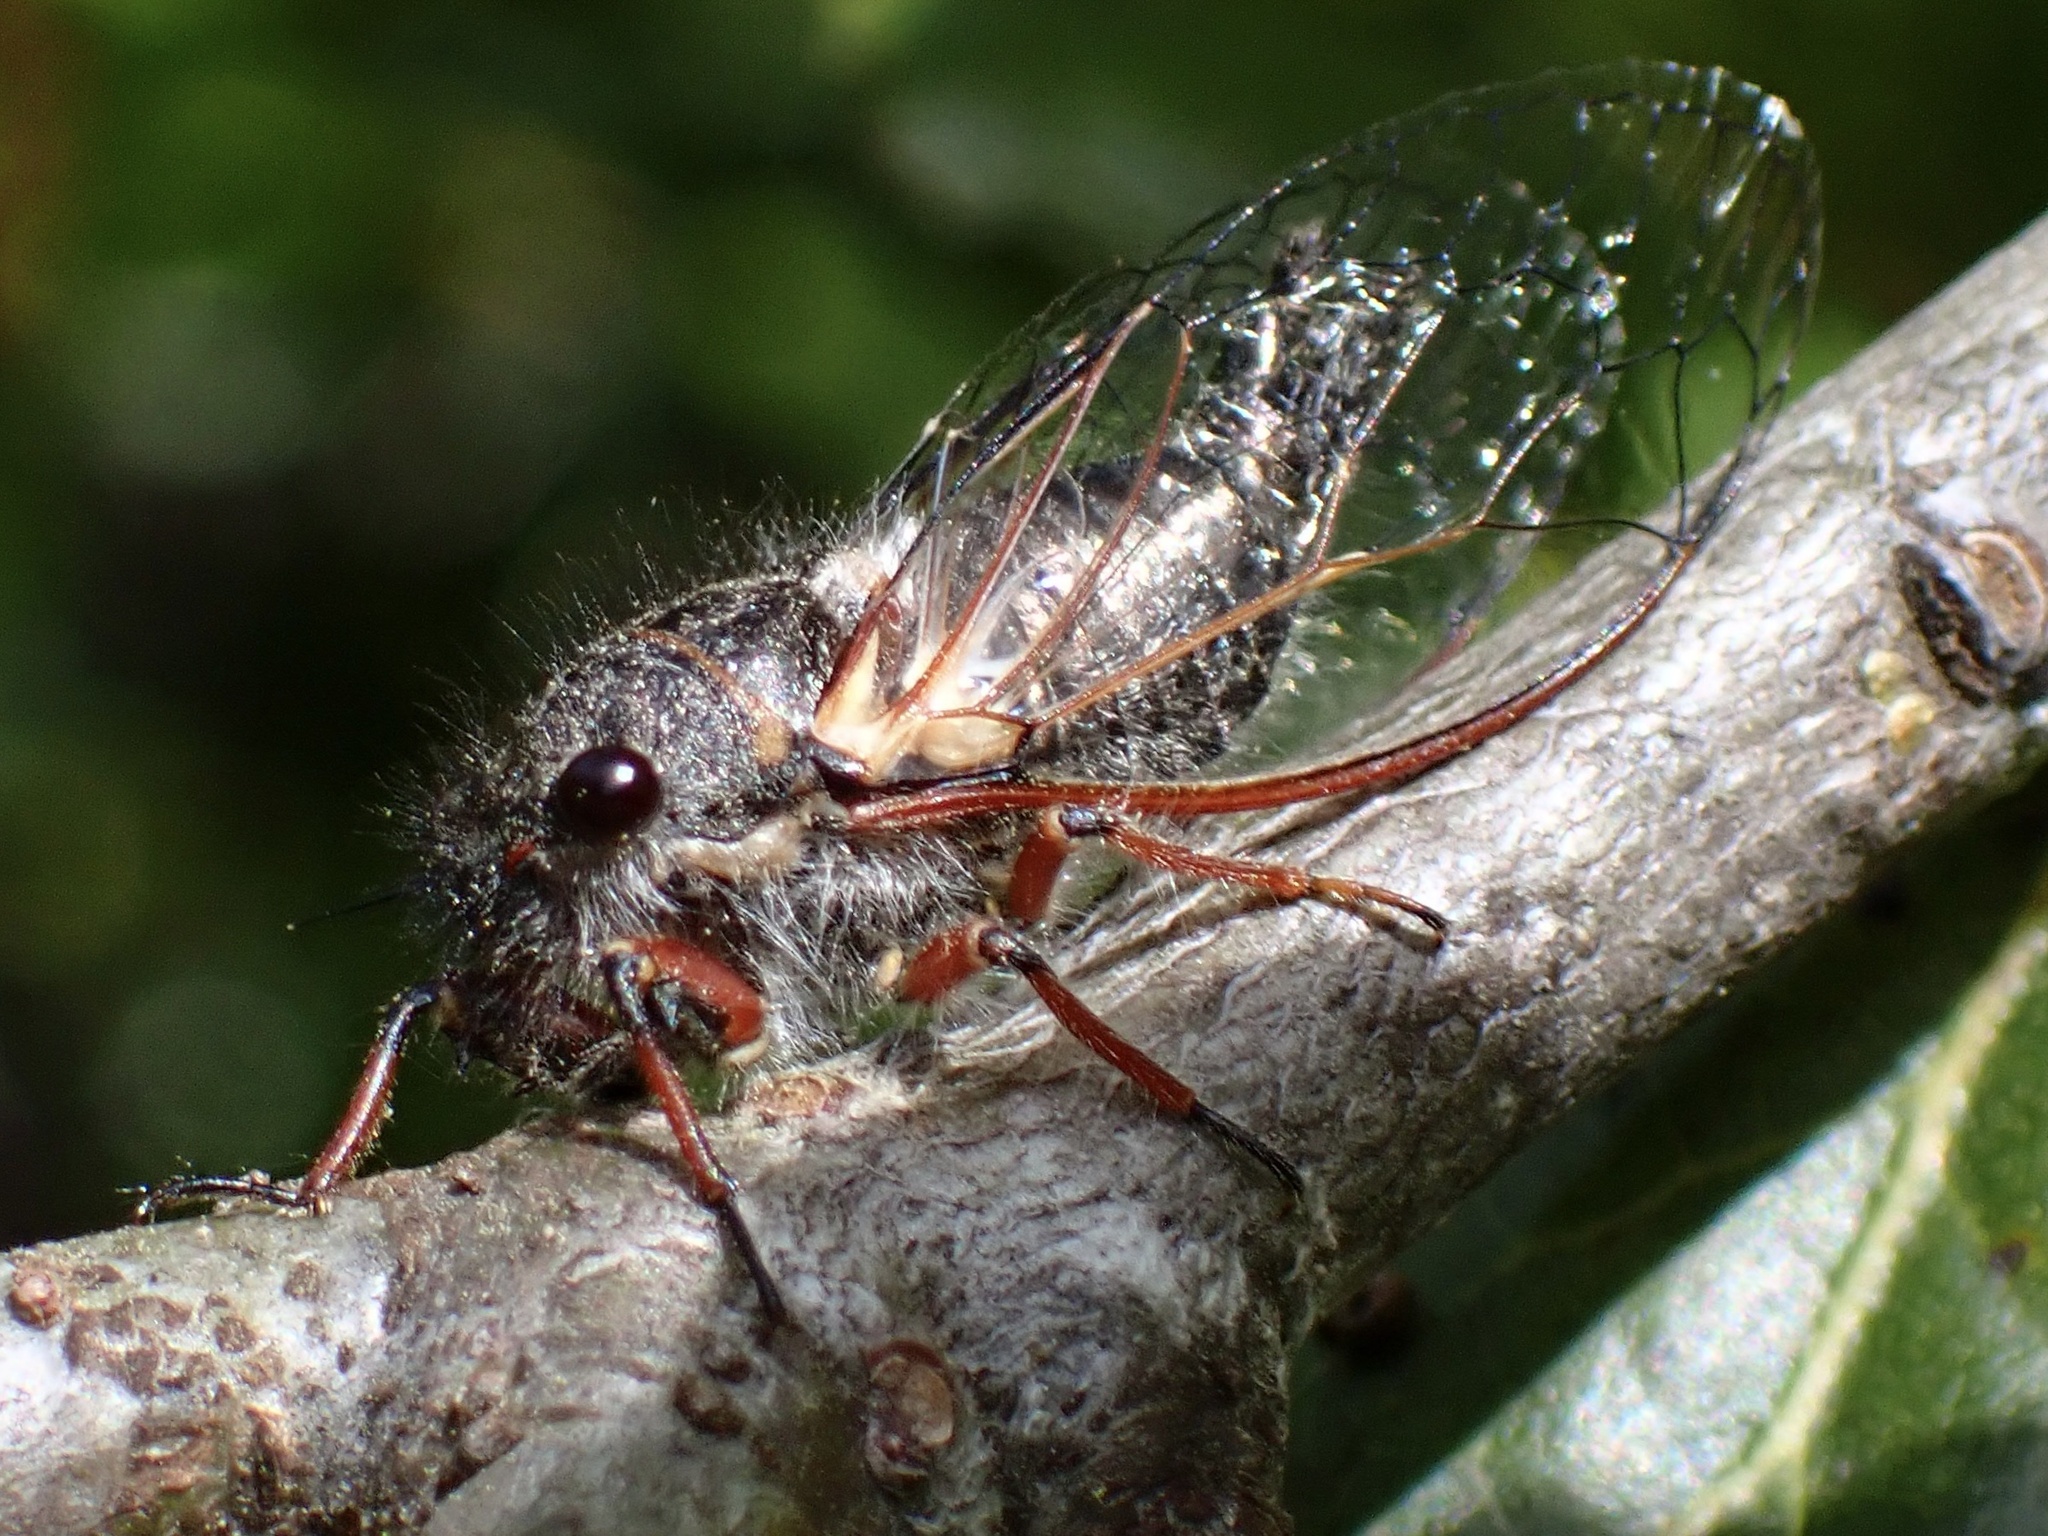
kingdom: Animalia
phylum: Arthropoda
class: Insecta
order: Hemiptera
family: Cicadidae
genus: Platypedia
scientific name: Platypedia minor
